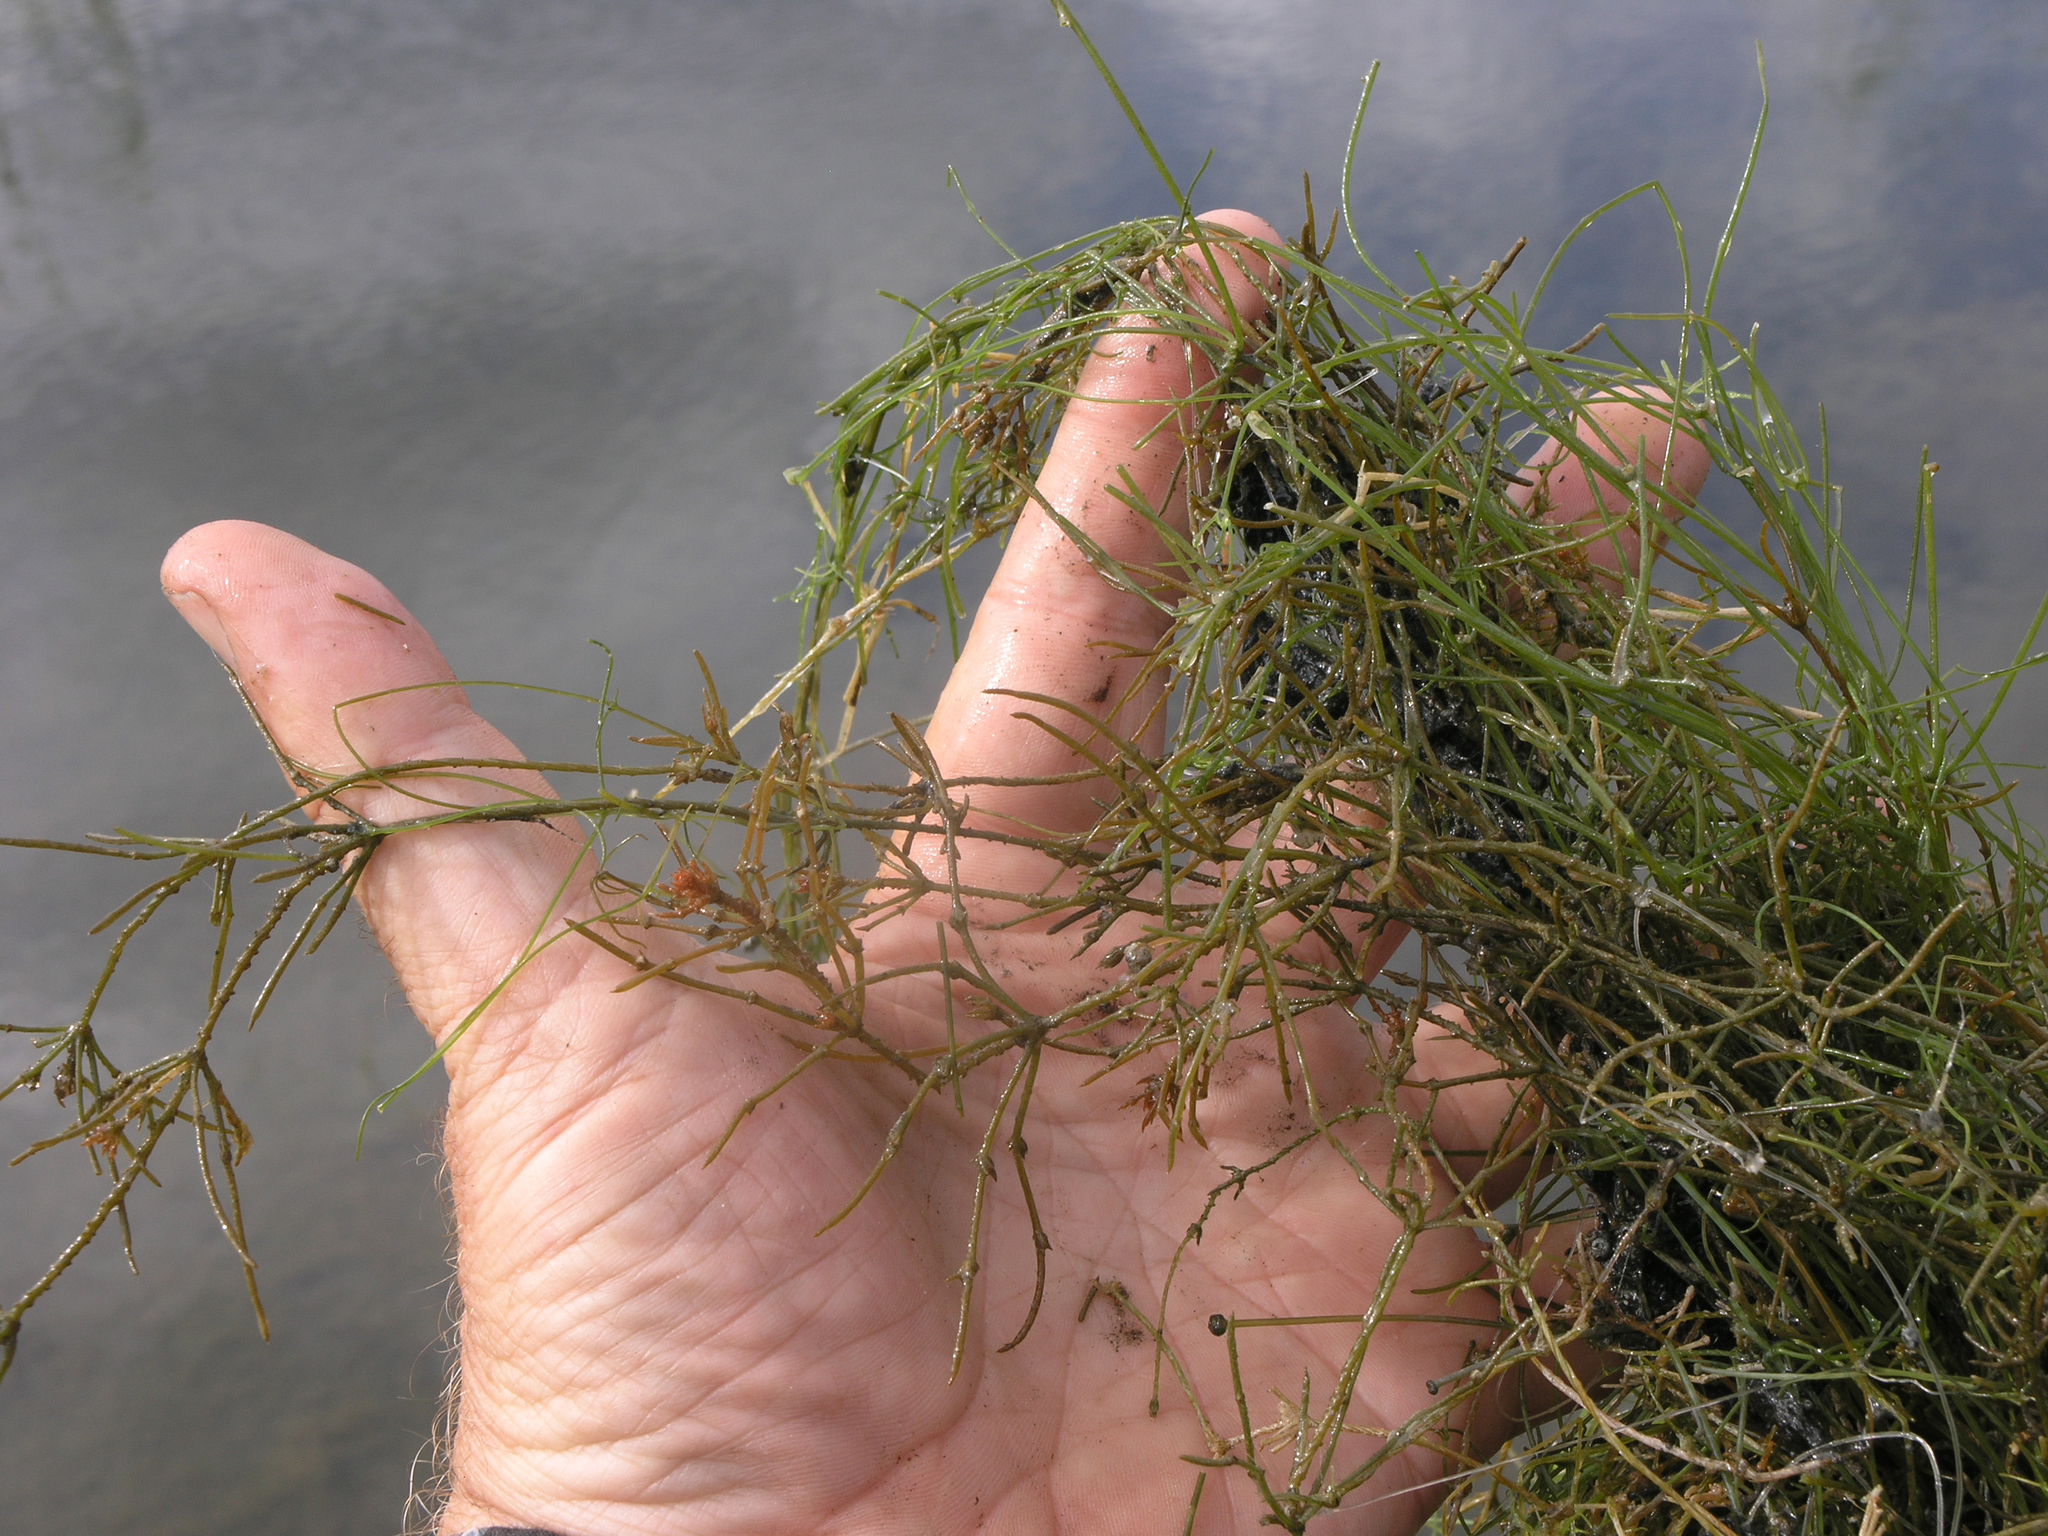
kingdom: Plantae
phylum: Charophyta
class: Charophyceae
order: Charales
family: Characeae
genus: Chara
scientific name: Chara tomentosa
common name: Coral stonewort
